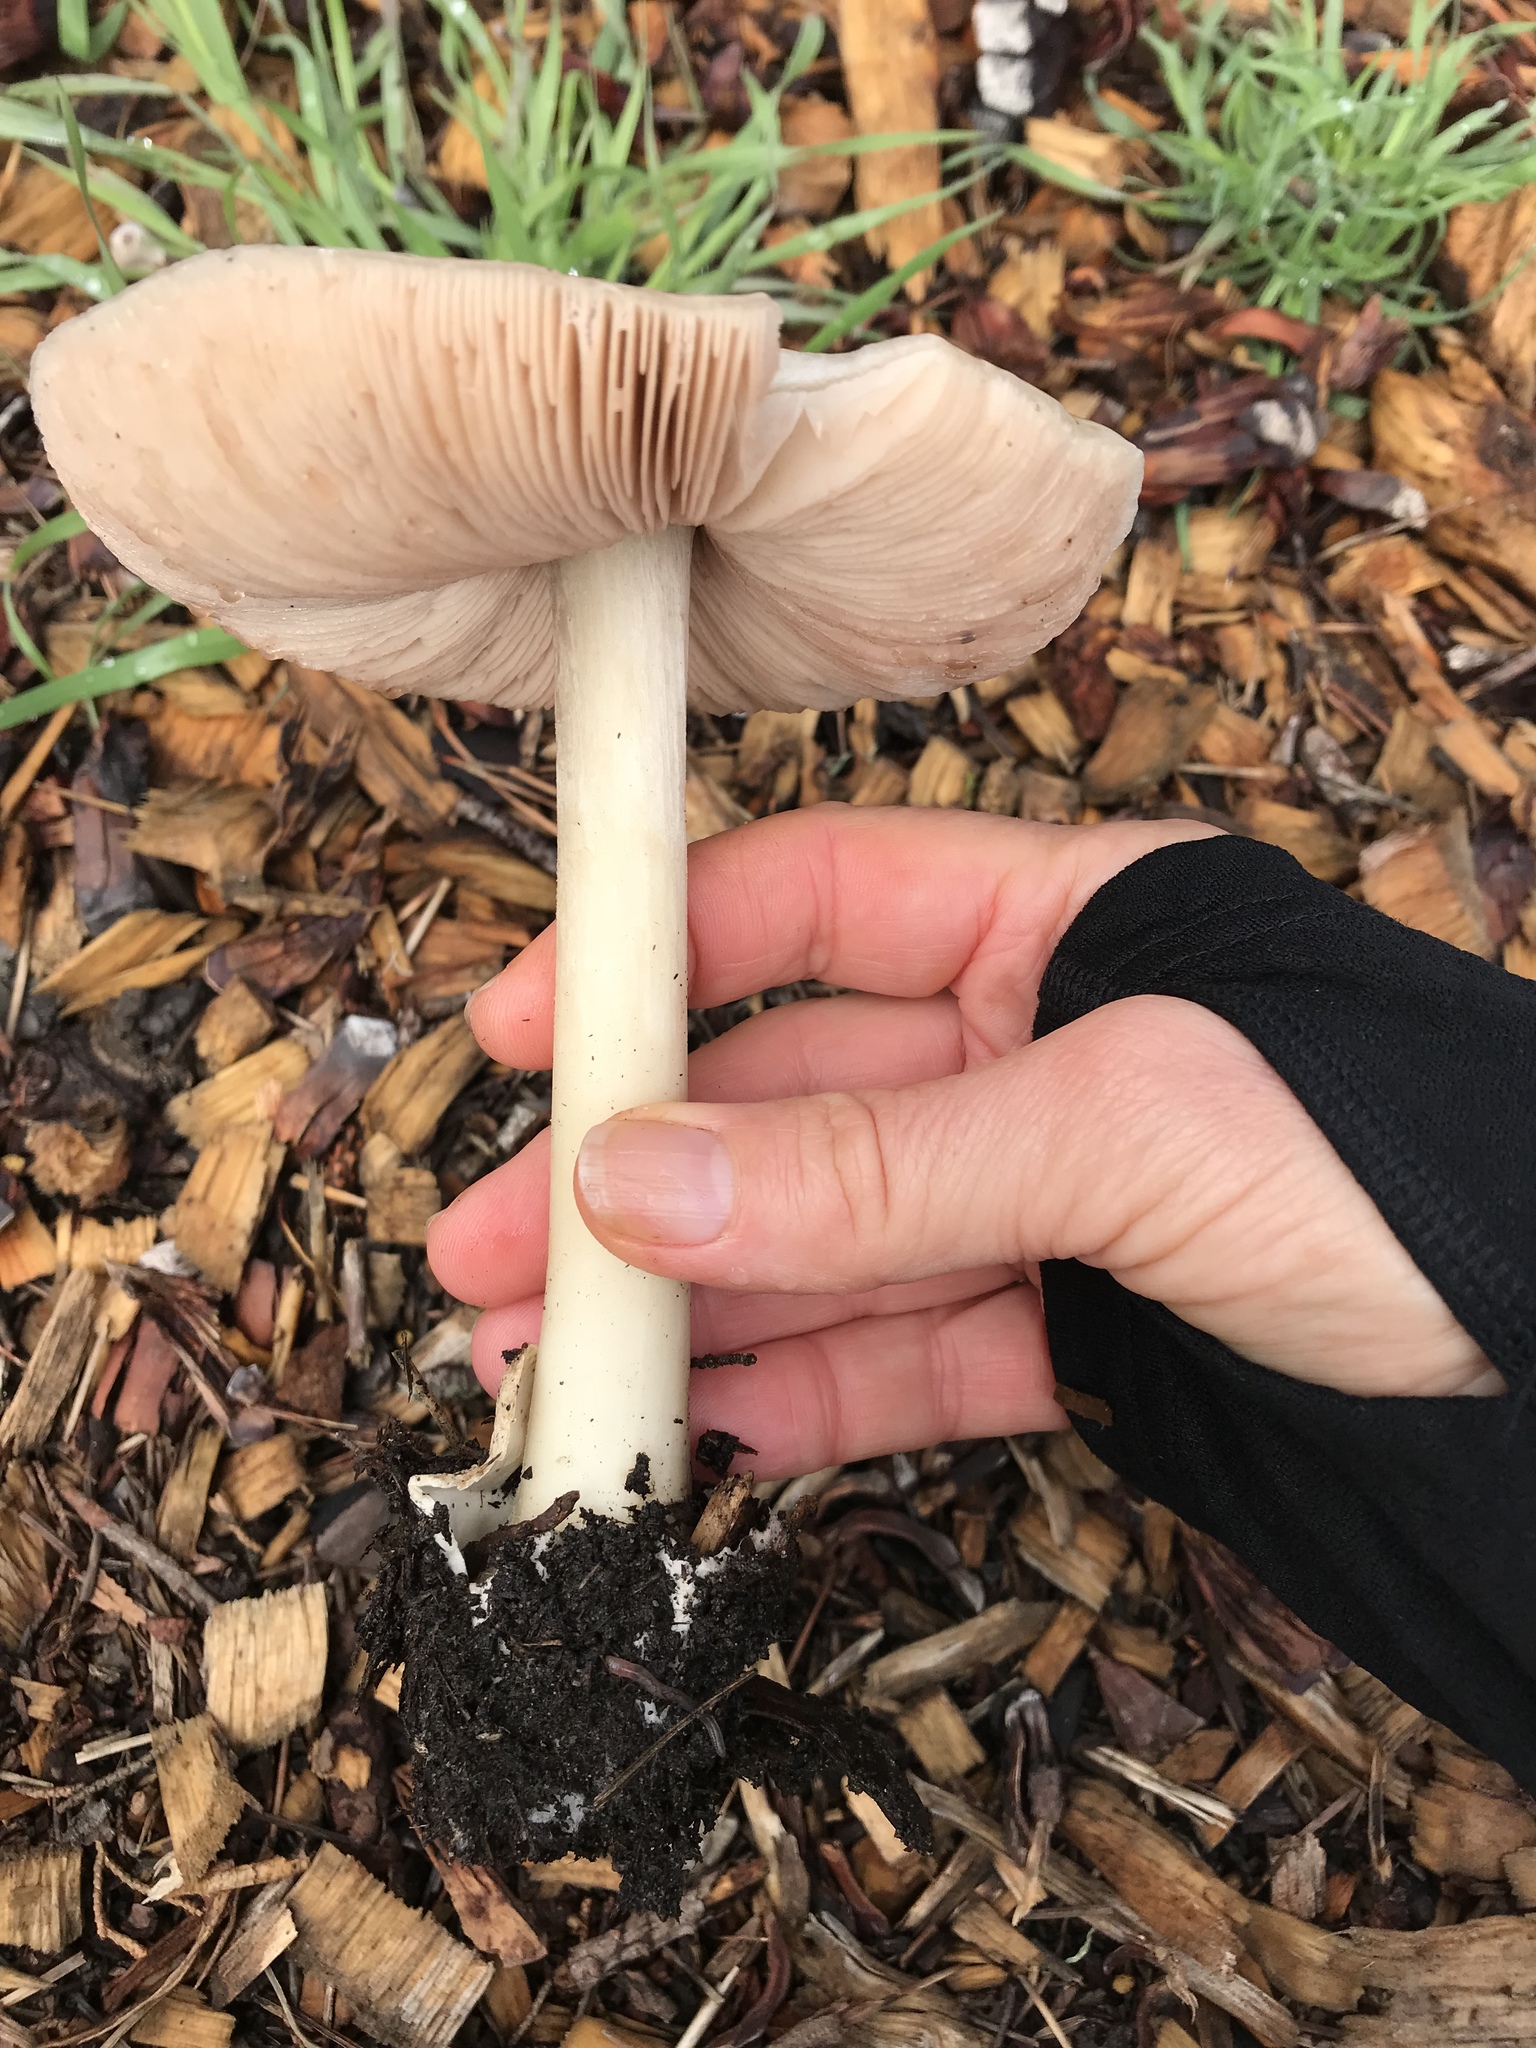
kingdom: Fungi
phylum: Basidiomycota
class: Agaricomycetes
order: Agaricales
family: Pluteaceae
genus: Volvopluteus
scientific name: Volvopluteus gloiocephalus
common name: Stubble rosegill
